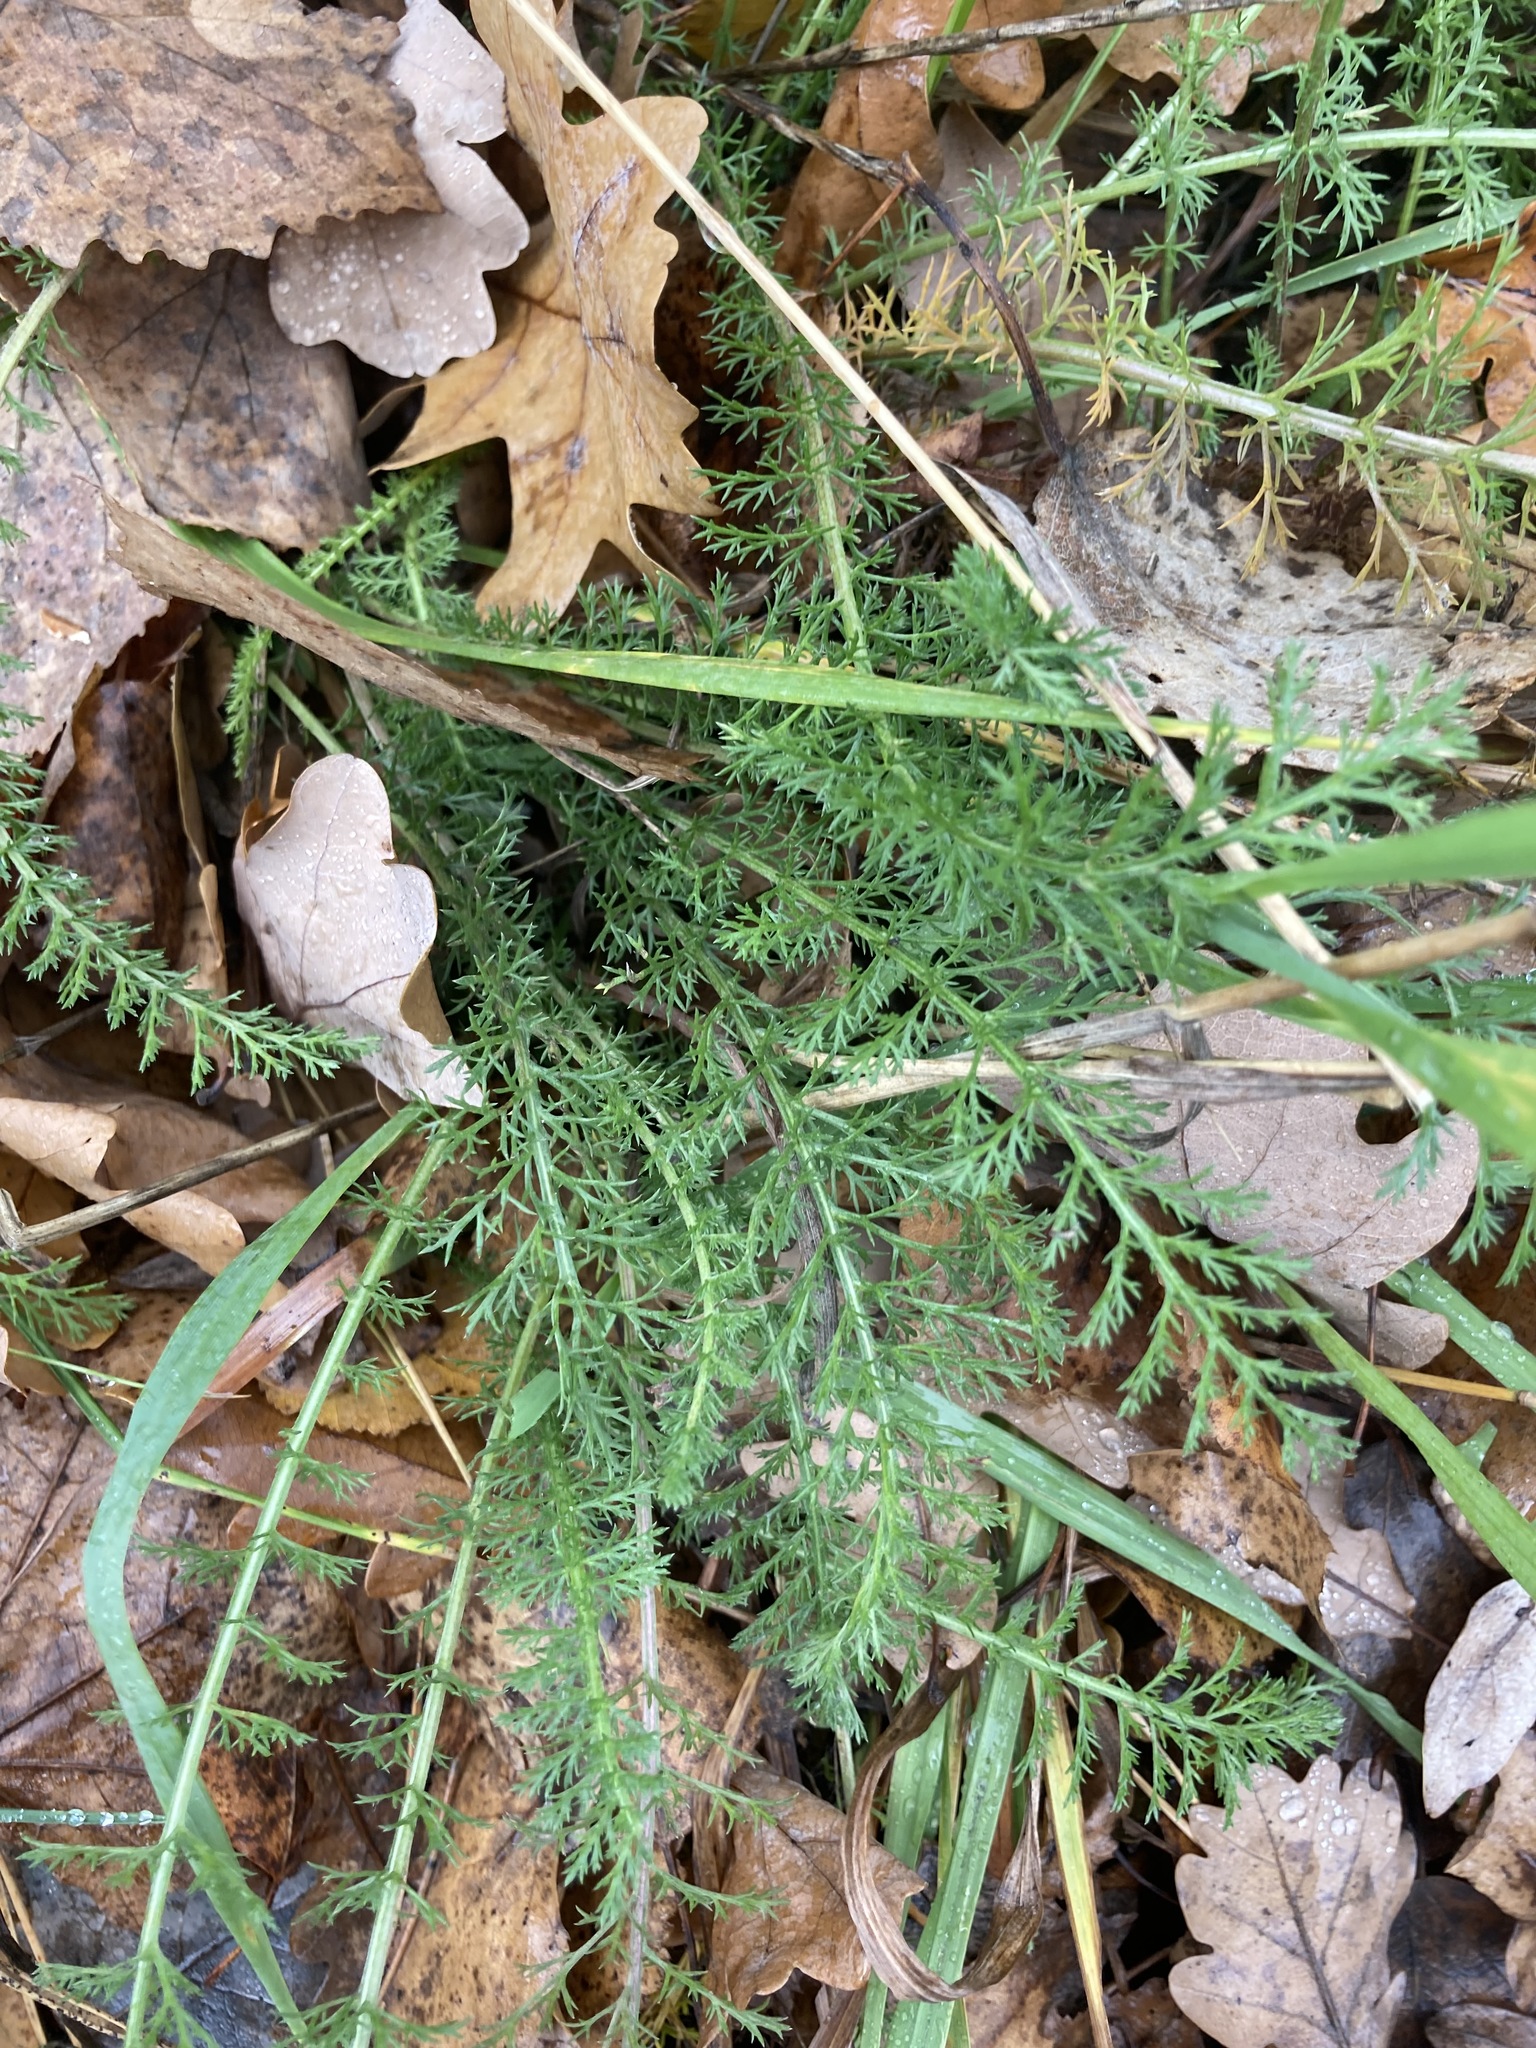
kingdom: Plantae
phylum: Tracheophyta
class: Magnoliopsida
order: Asterales
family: Asteraceae
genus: Achillea
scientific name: Achillea millefolium
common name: Yarrow
